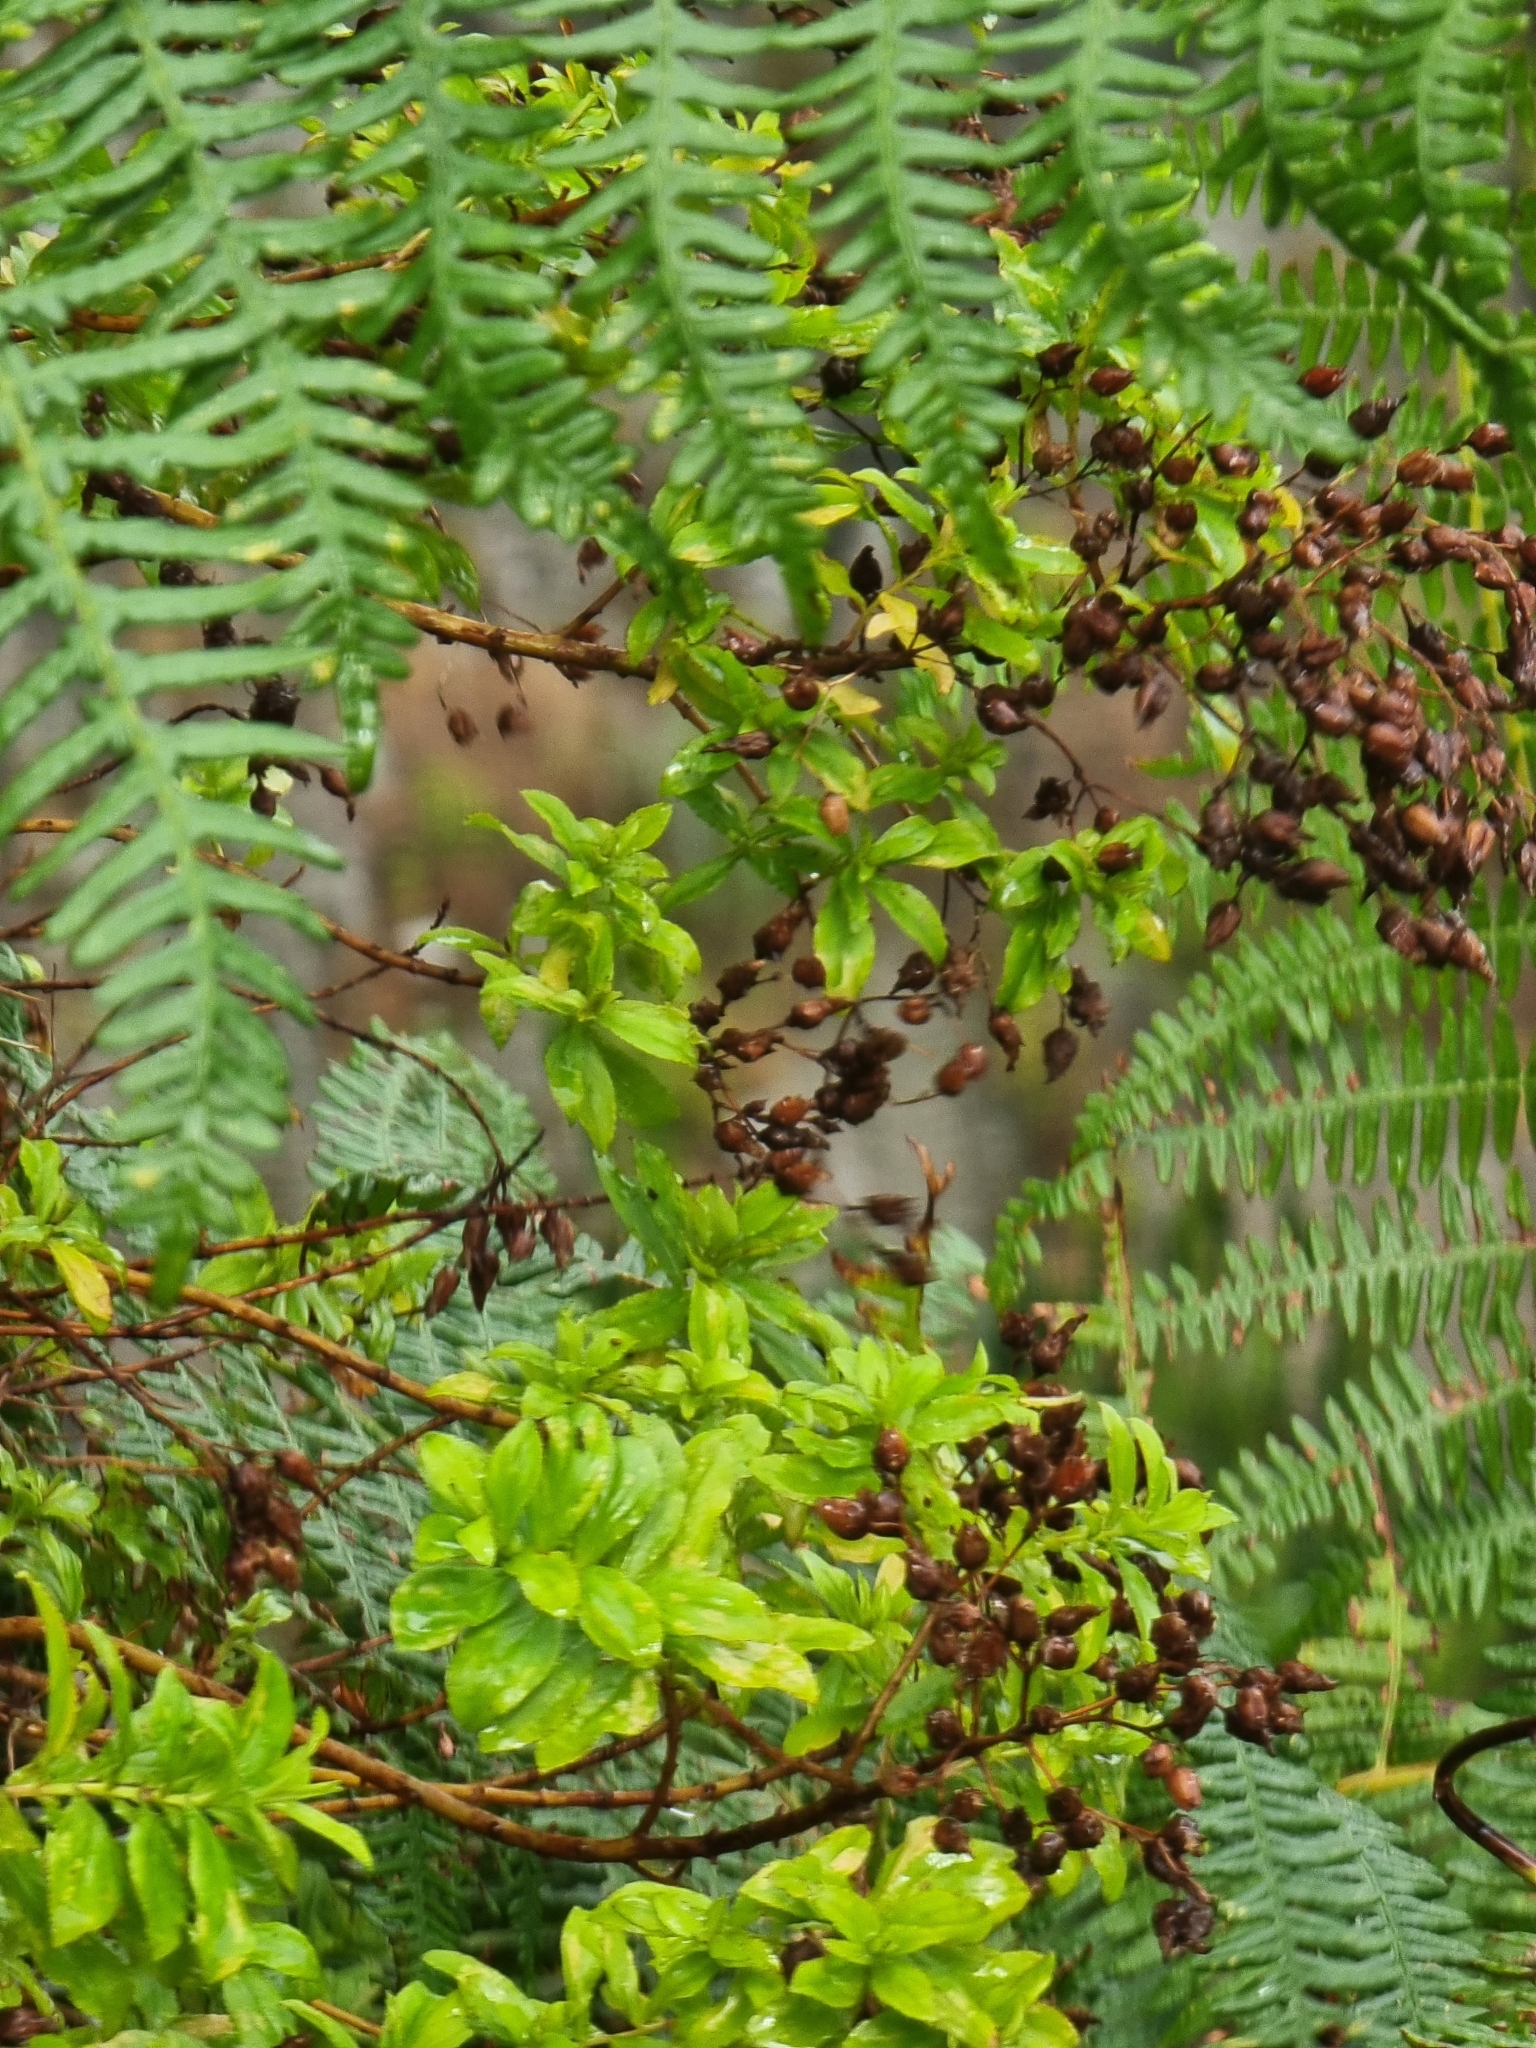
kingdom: Plantae
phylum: Tracheophyta
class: Magnoliopsida
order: Malpighiales
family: Hypericaceae
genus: Hypericum
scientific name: Hypericum glandulosum
